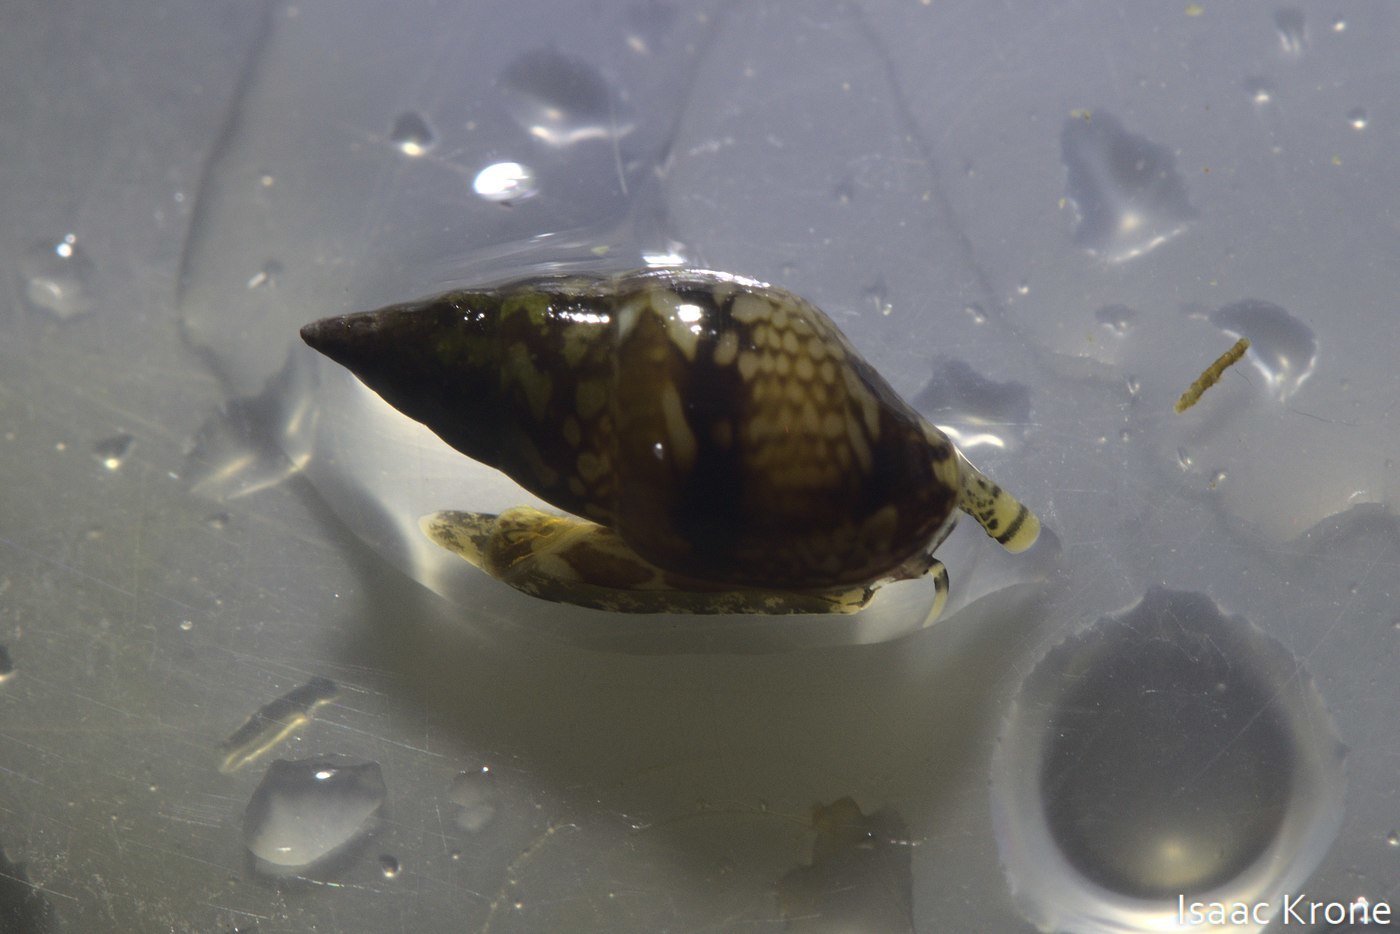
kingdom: Animalia
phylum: Mollusca
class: Gastropoda
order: Neogastropoda
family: Columbellidae
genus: Alia
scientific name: Alia carinata
